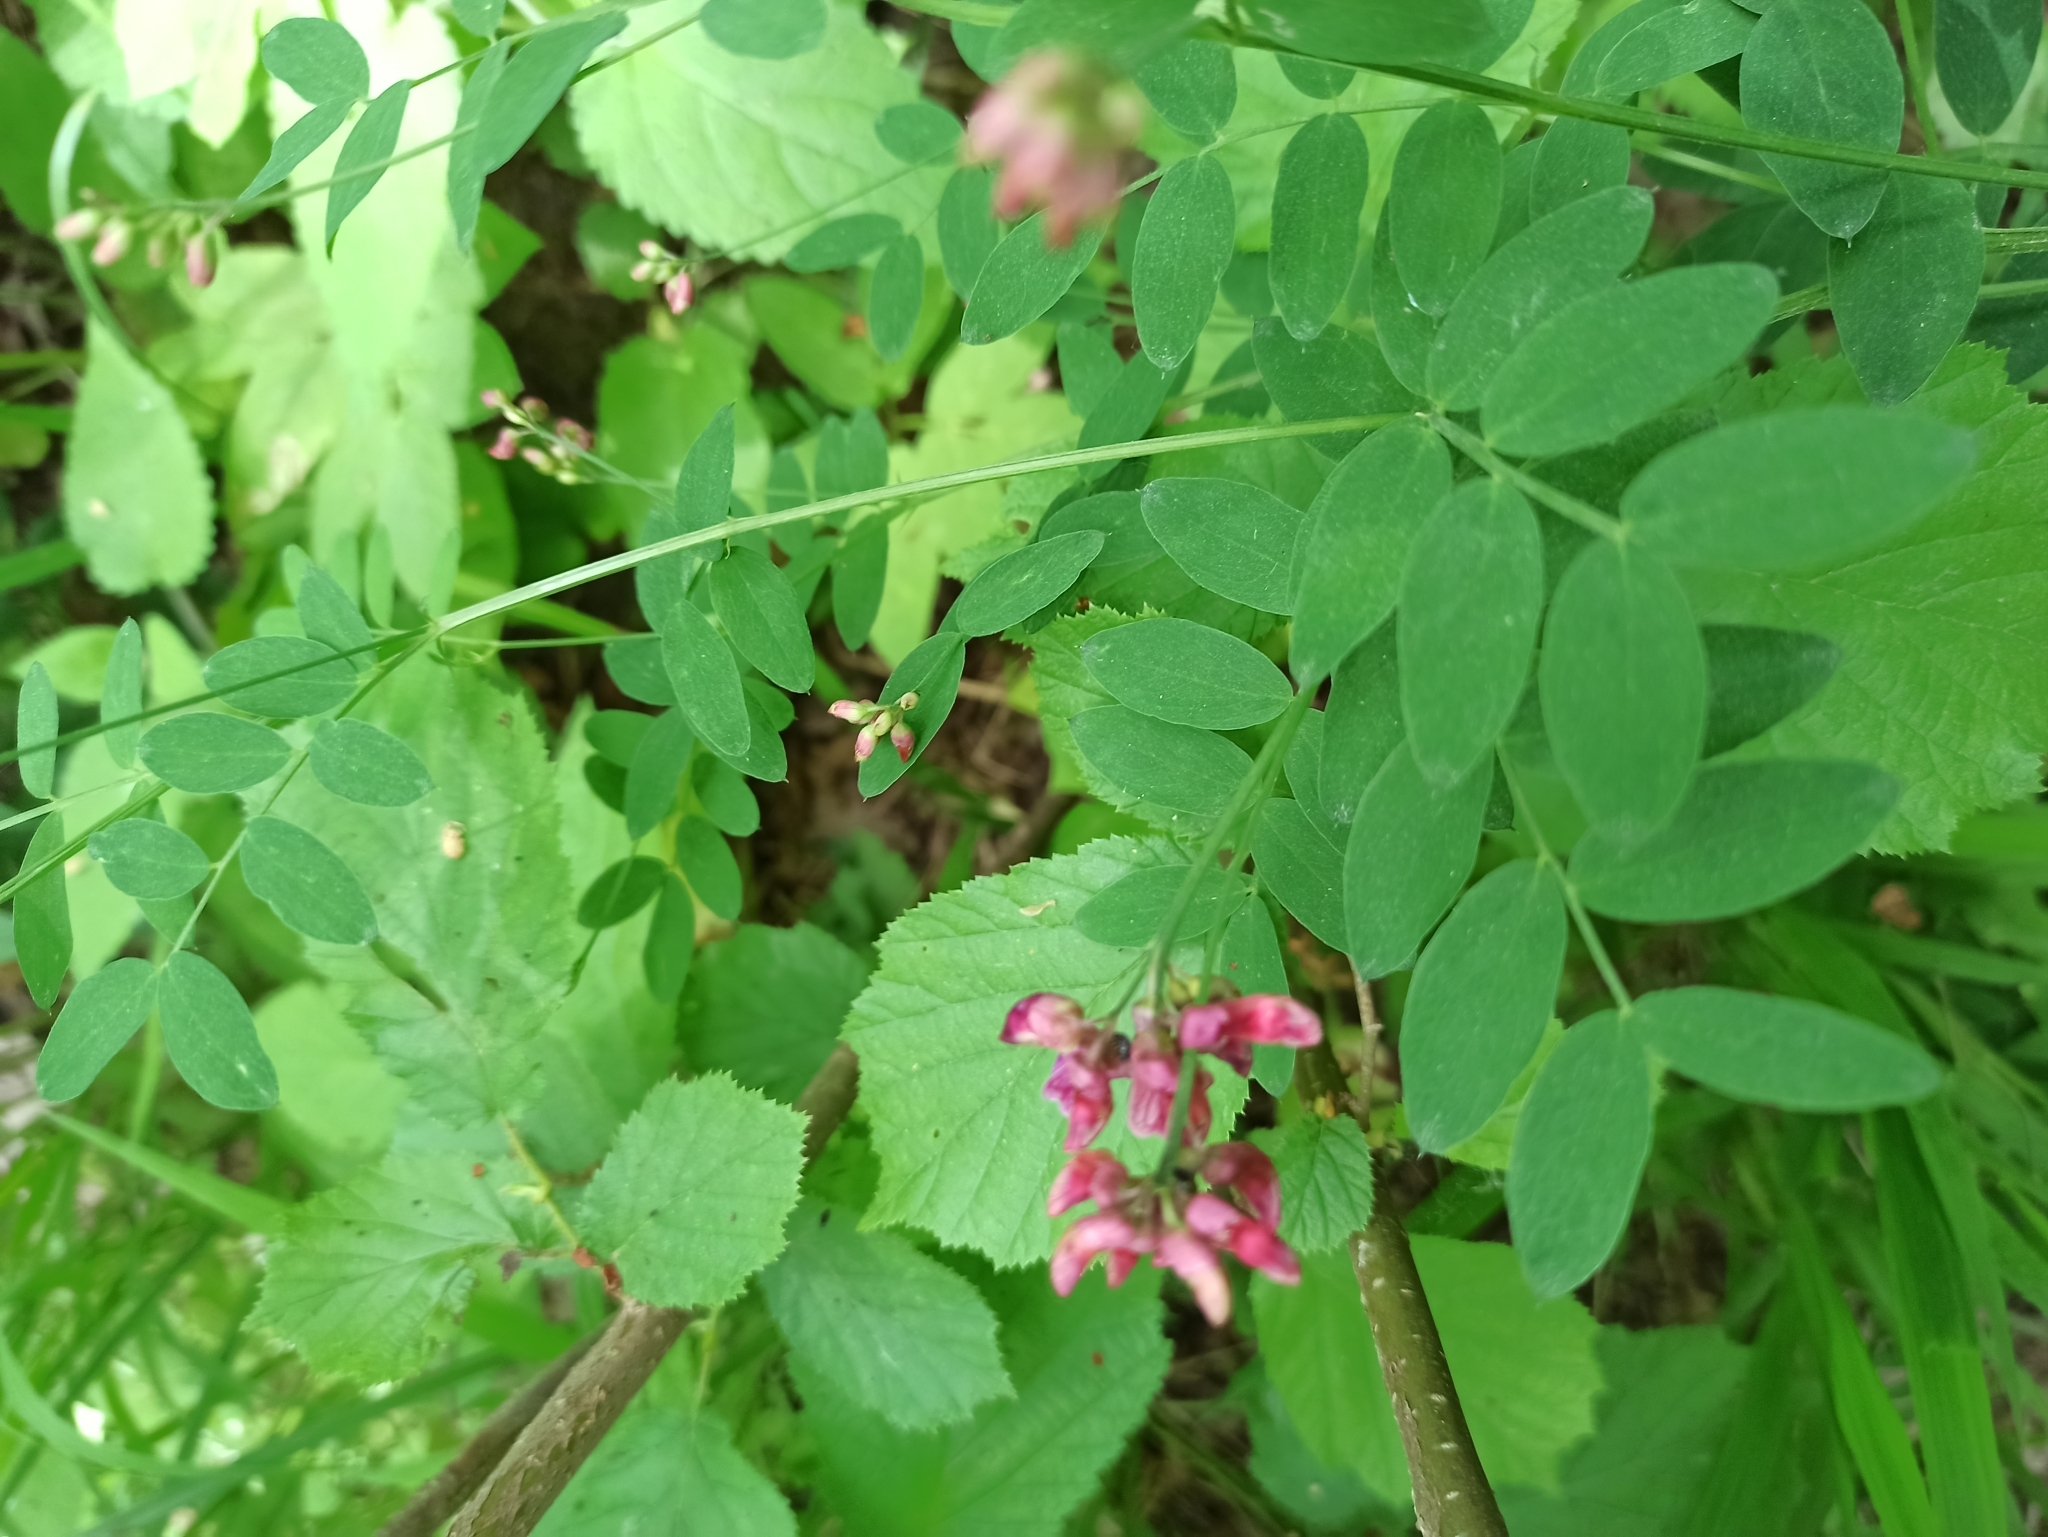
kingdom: Plantae
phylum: Tracheophyta
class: Magnoliopsida
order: Fabales
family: Fabaceae
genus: Lathyrus
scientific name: Lathyrus niger
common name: Black pea
